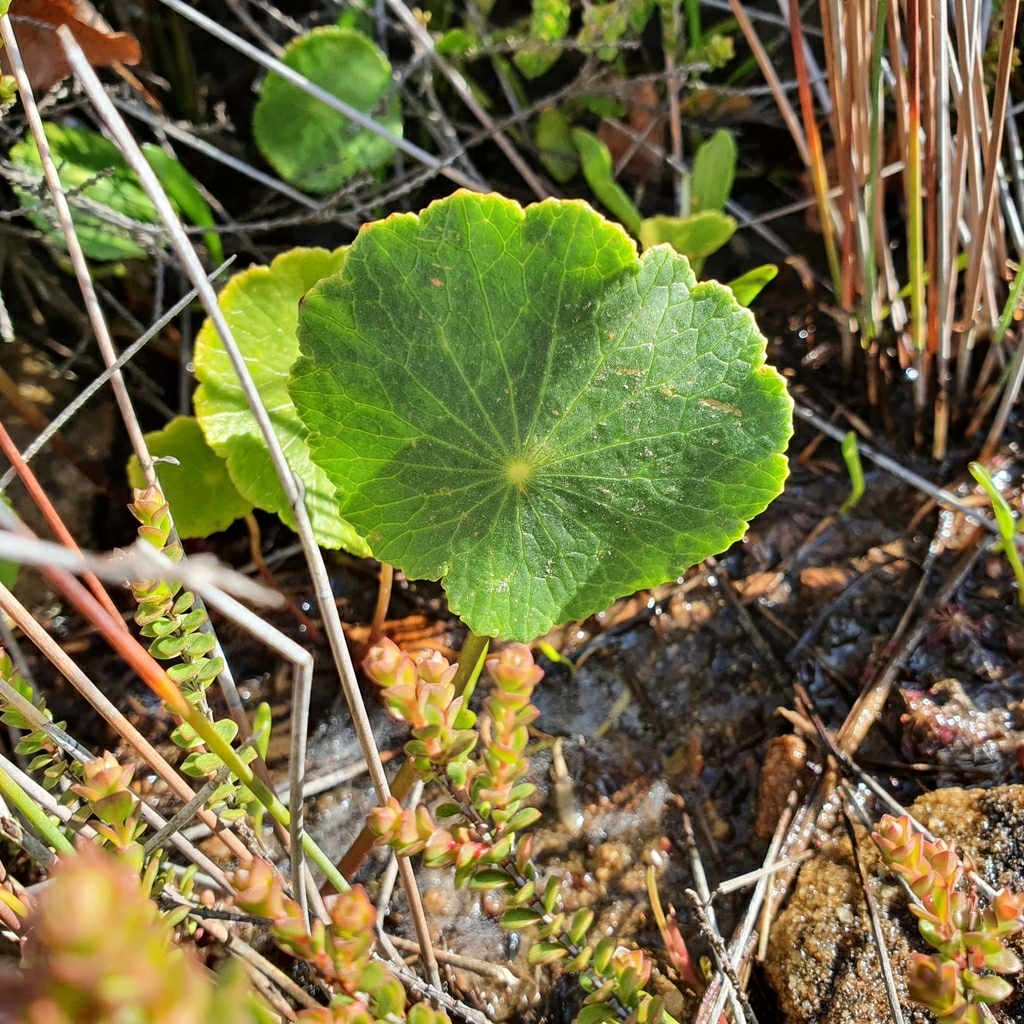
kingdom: Plantae
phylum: Tracheophyta
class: Magnoliopsida
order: Apiales
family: Araliaceae
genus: Hydrocotyle
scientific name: Hydrocotyle bonariensis
